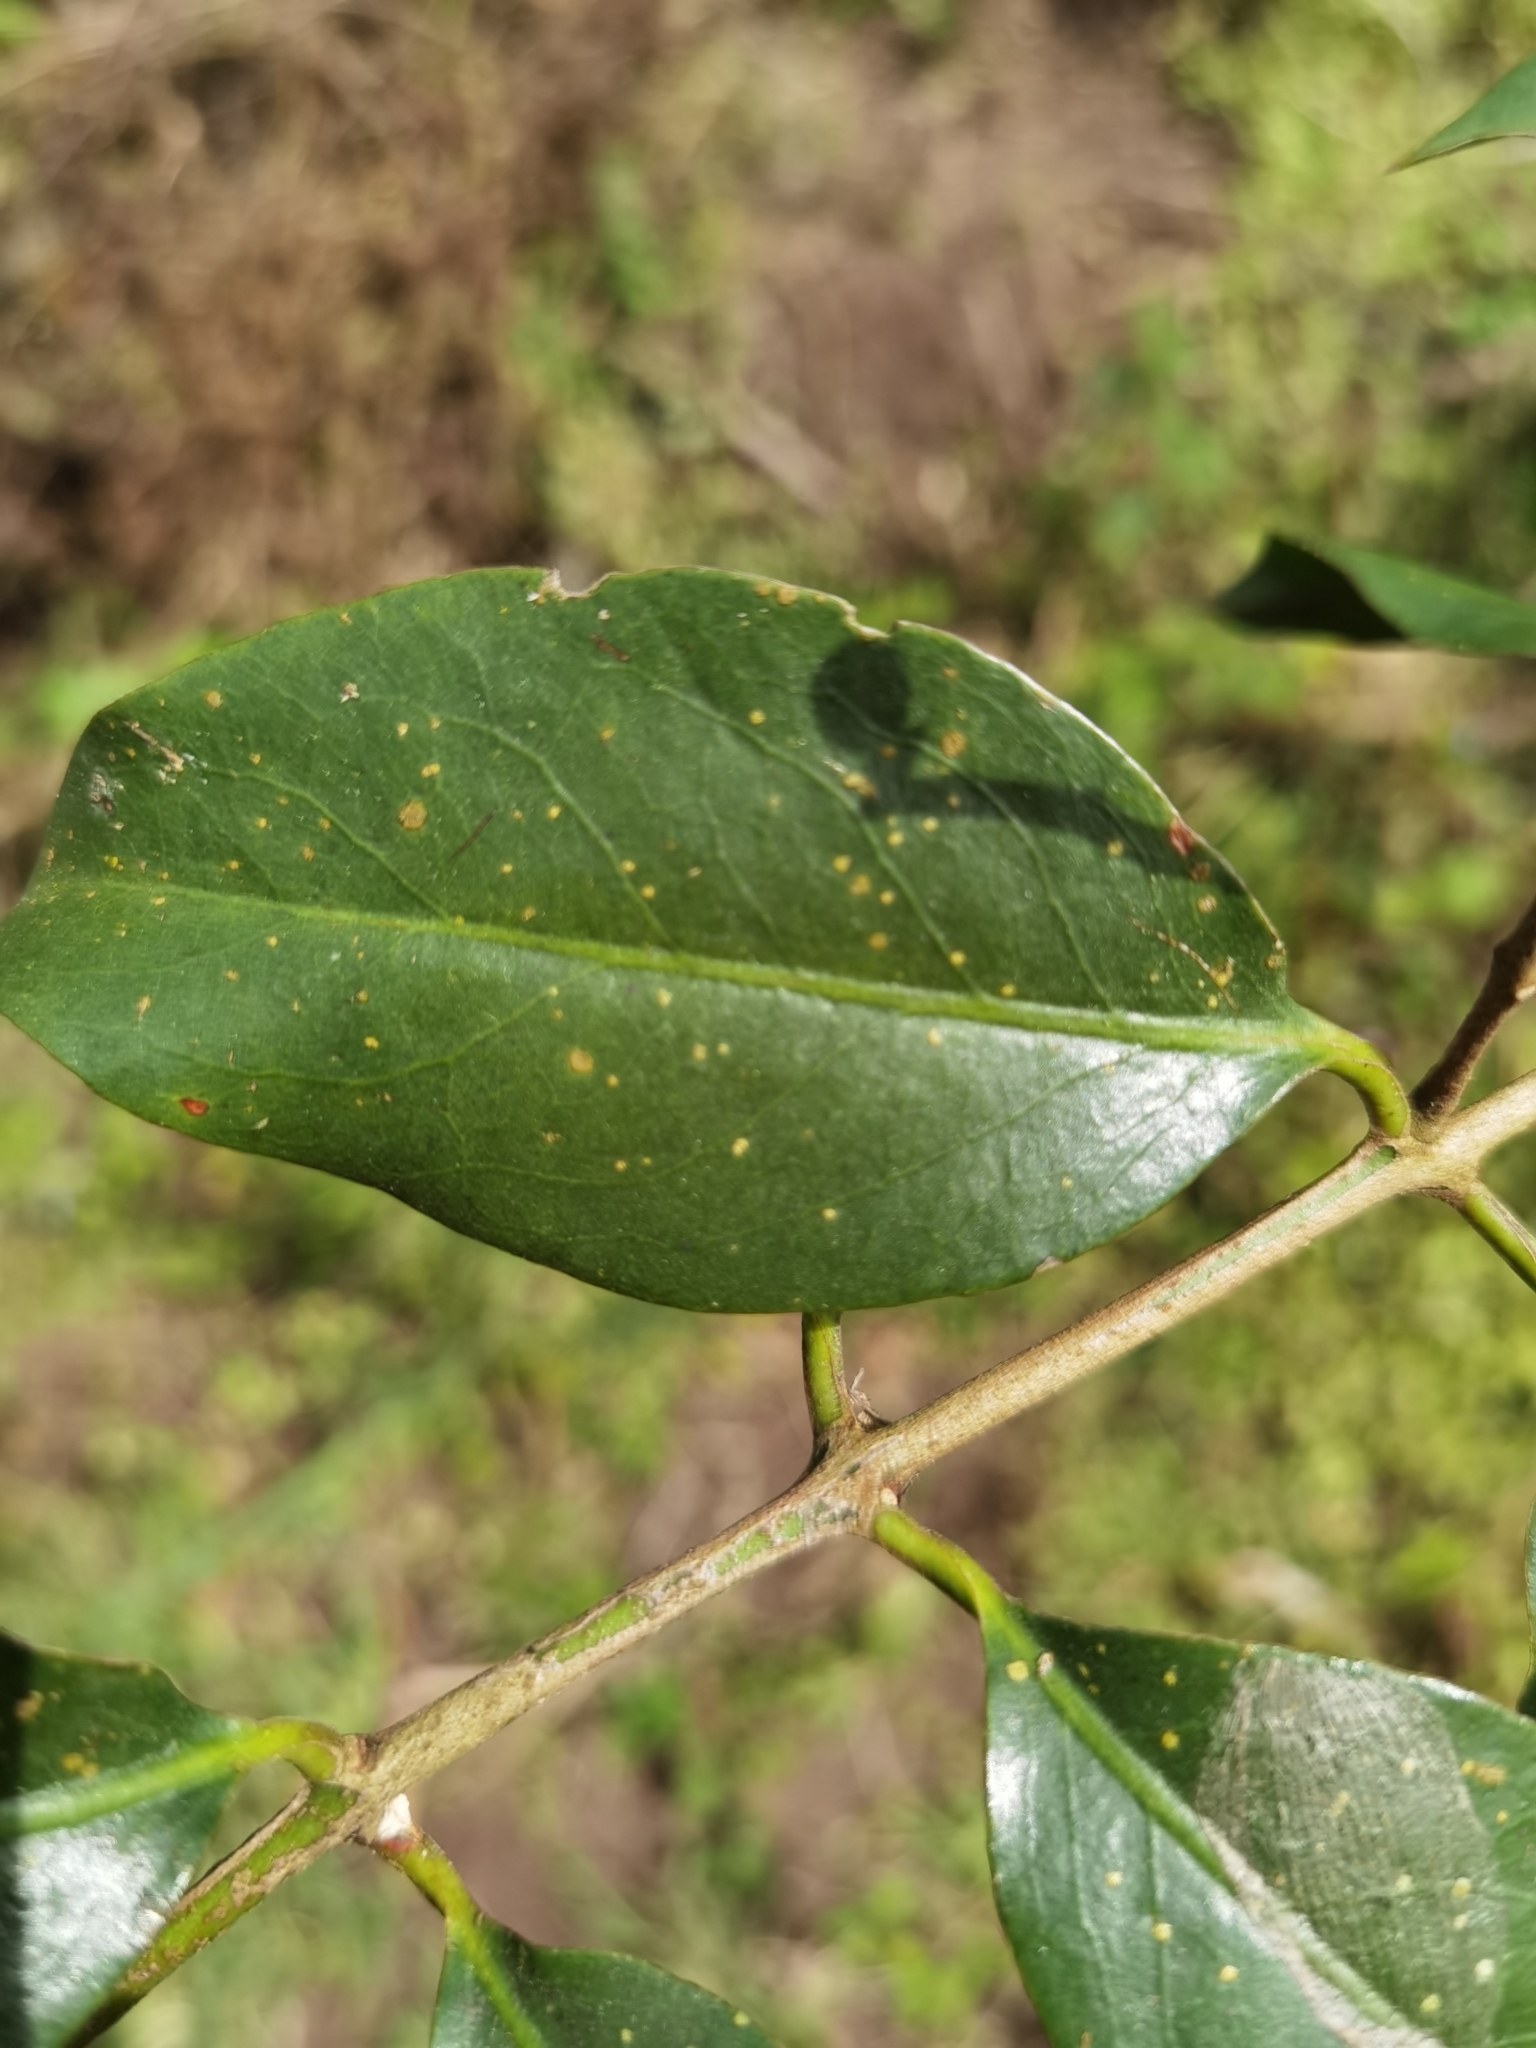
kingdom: Plantae
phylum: Tracheophyta
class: Magnoliopsida
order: Santalales
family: Loranthaceae
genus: Passovia
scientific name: Passovia pyrifolia
